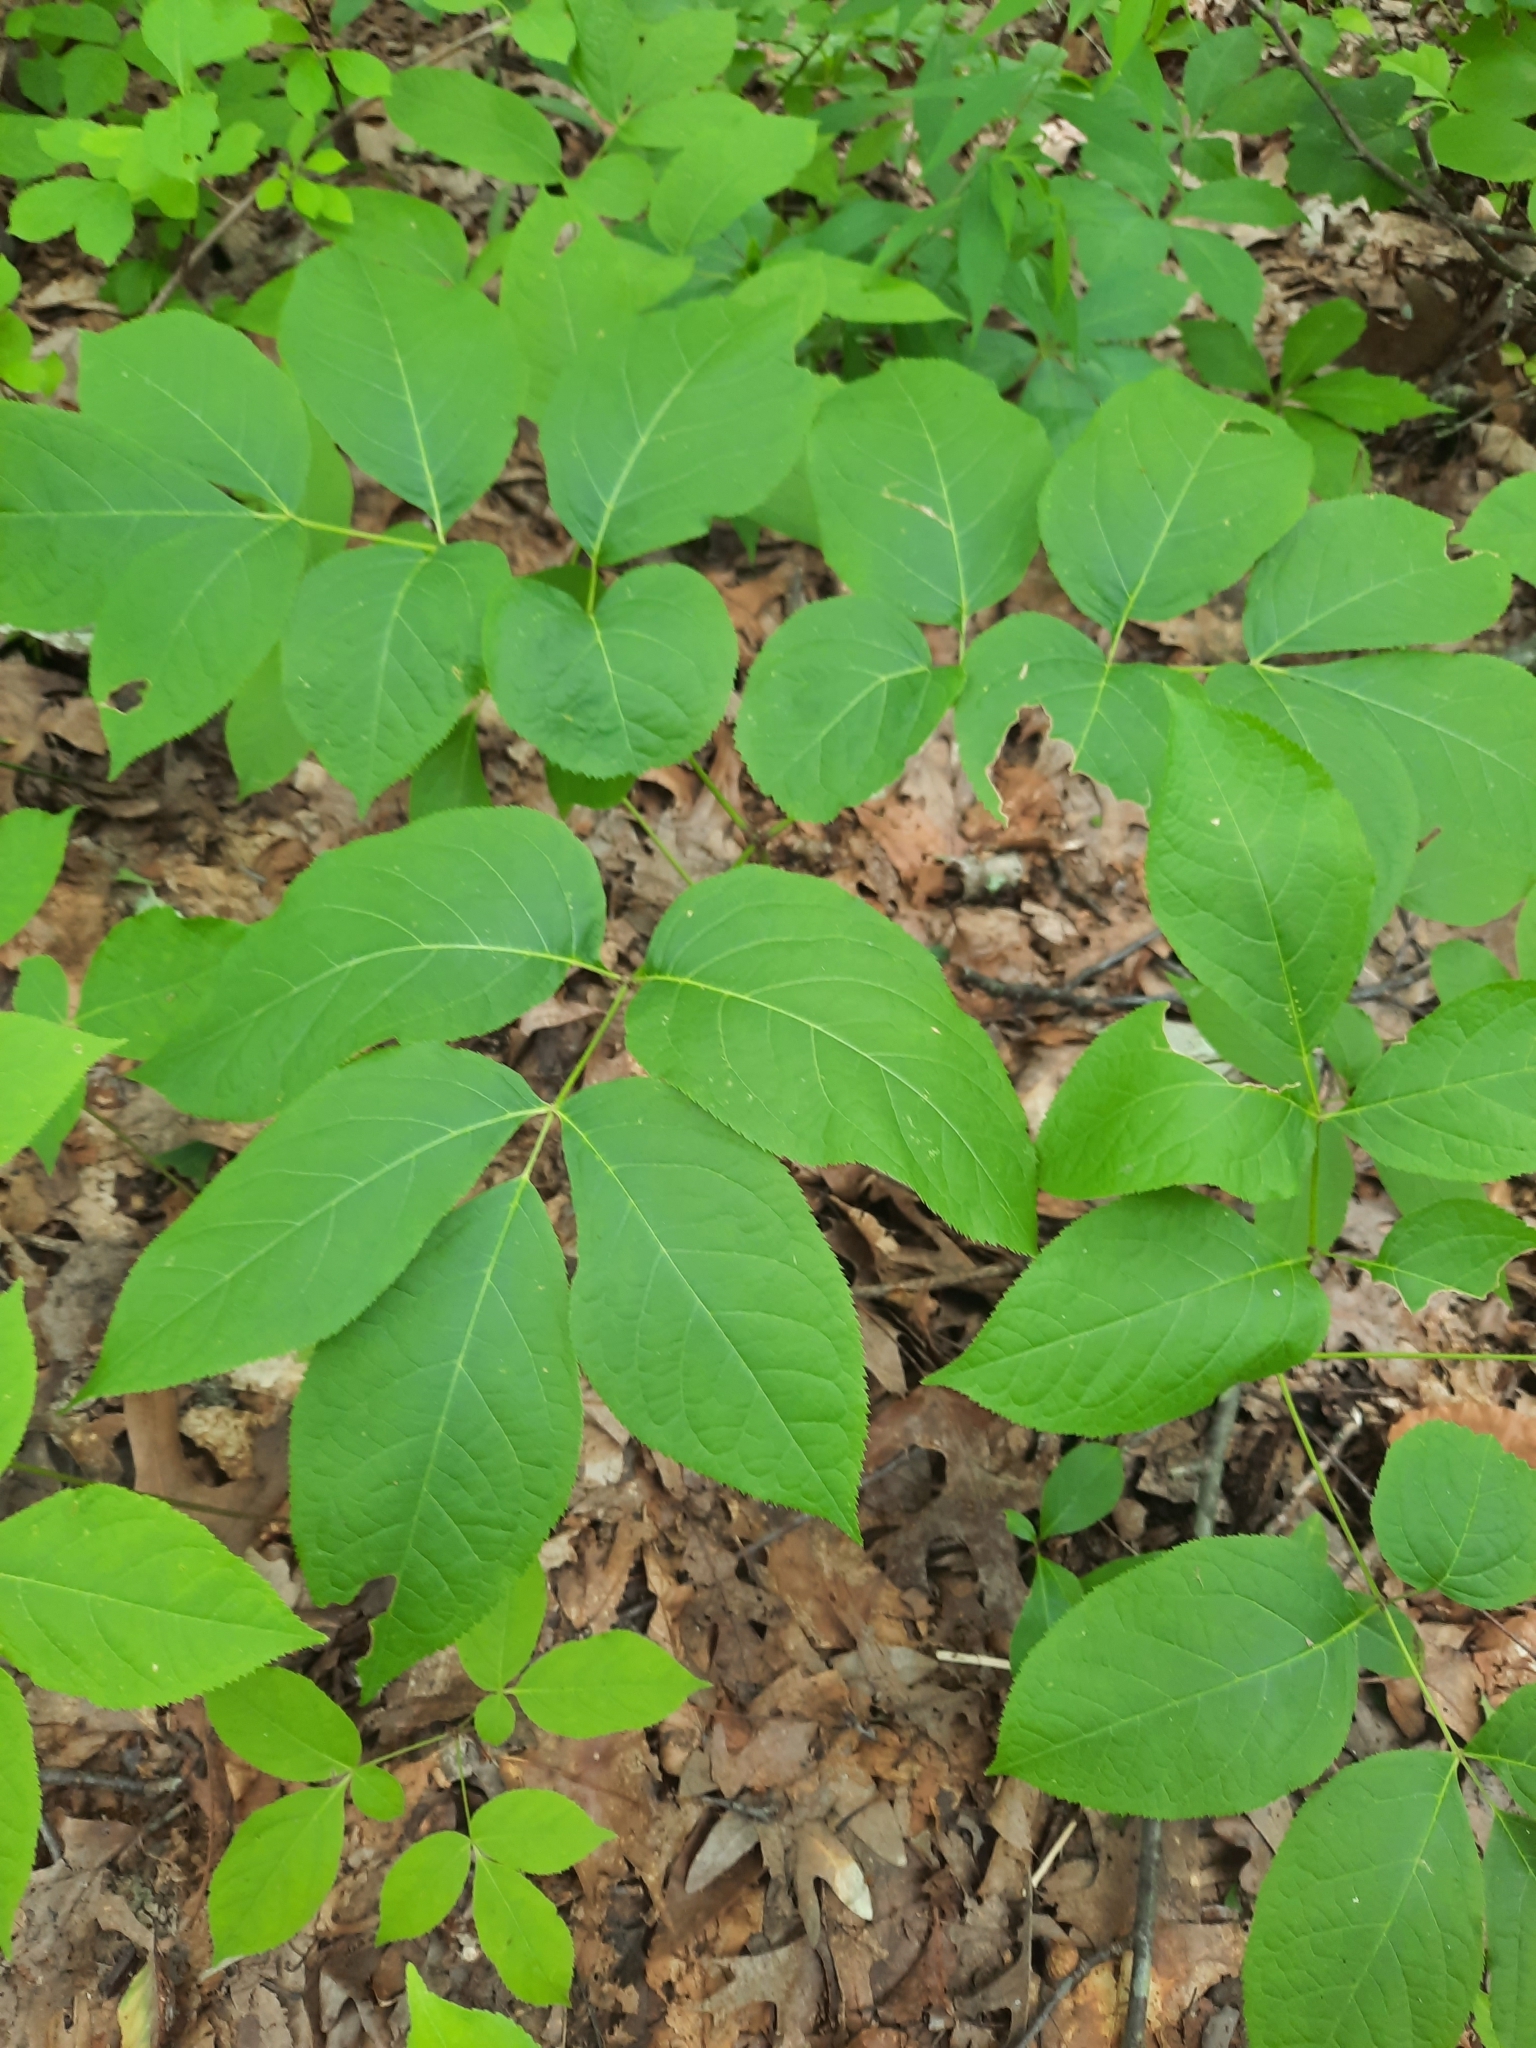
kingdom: Plantae
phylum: Tracheophyta
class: Magnoliopsida
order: Apiales
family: Araliaceae
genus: Aralia
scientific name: Aralia nudicaulis
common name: Wild sarsaparilla
